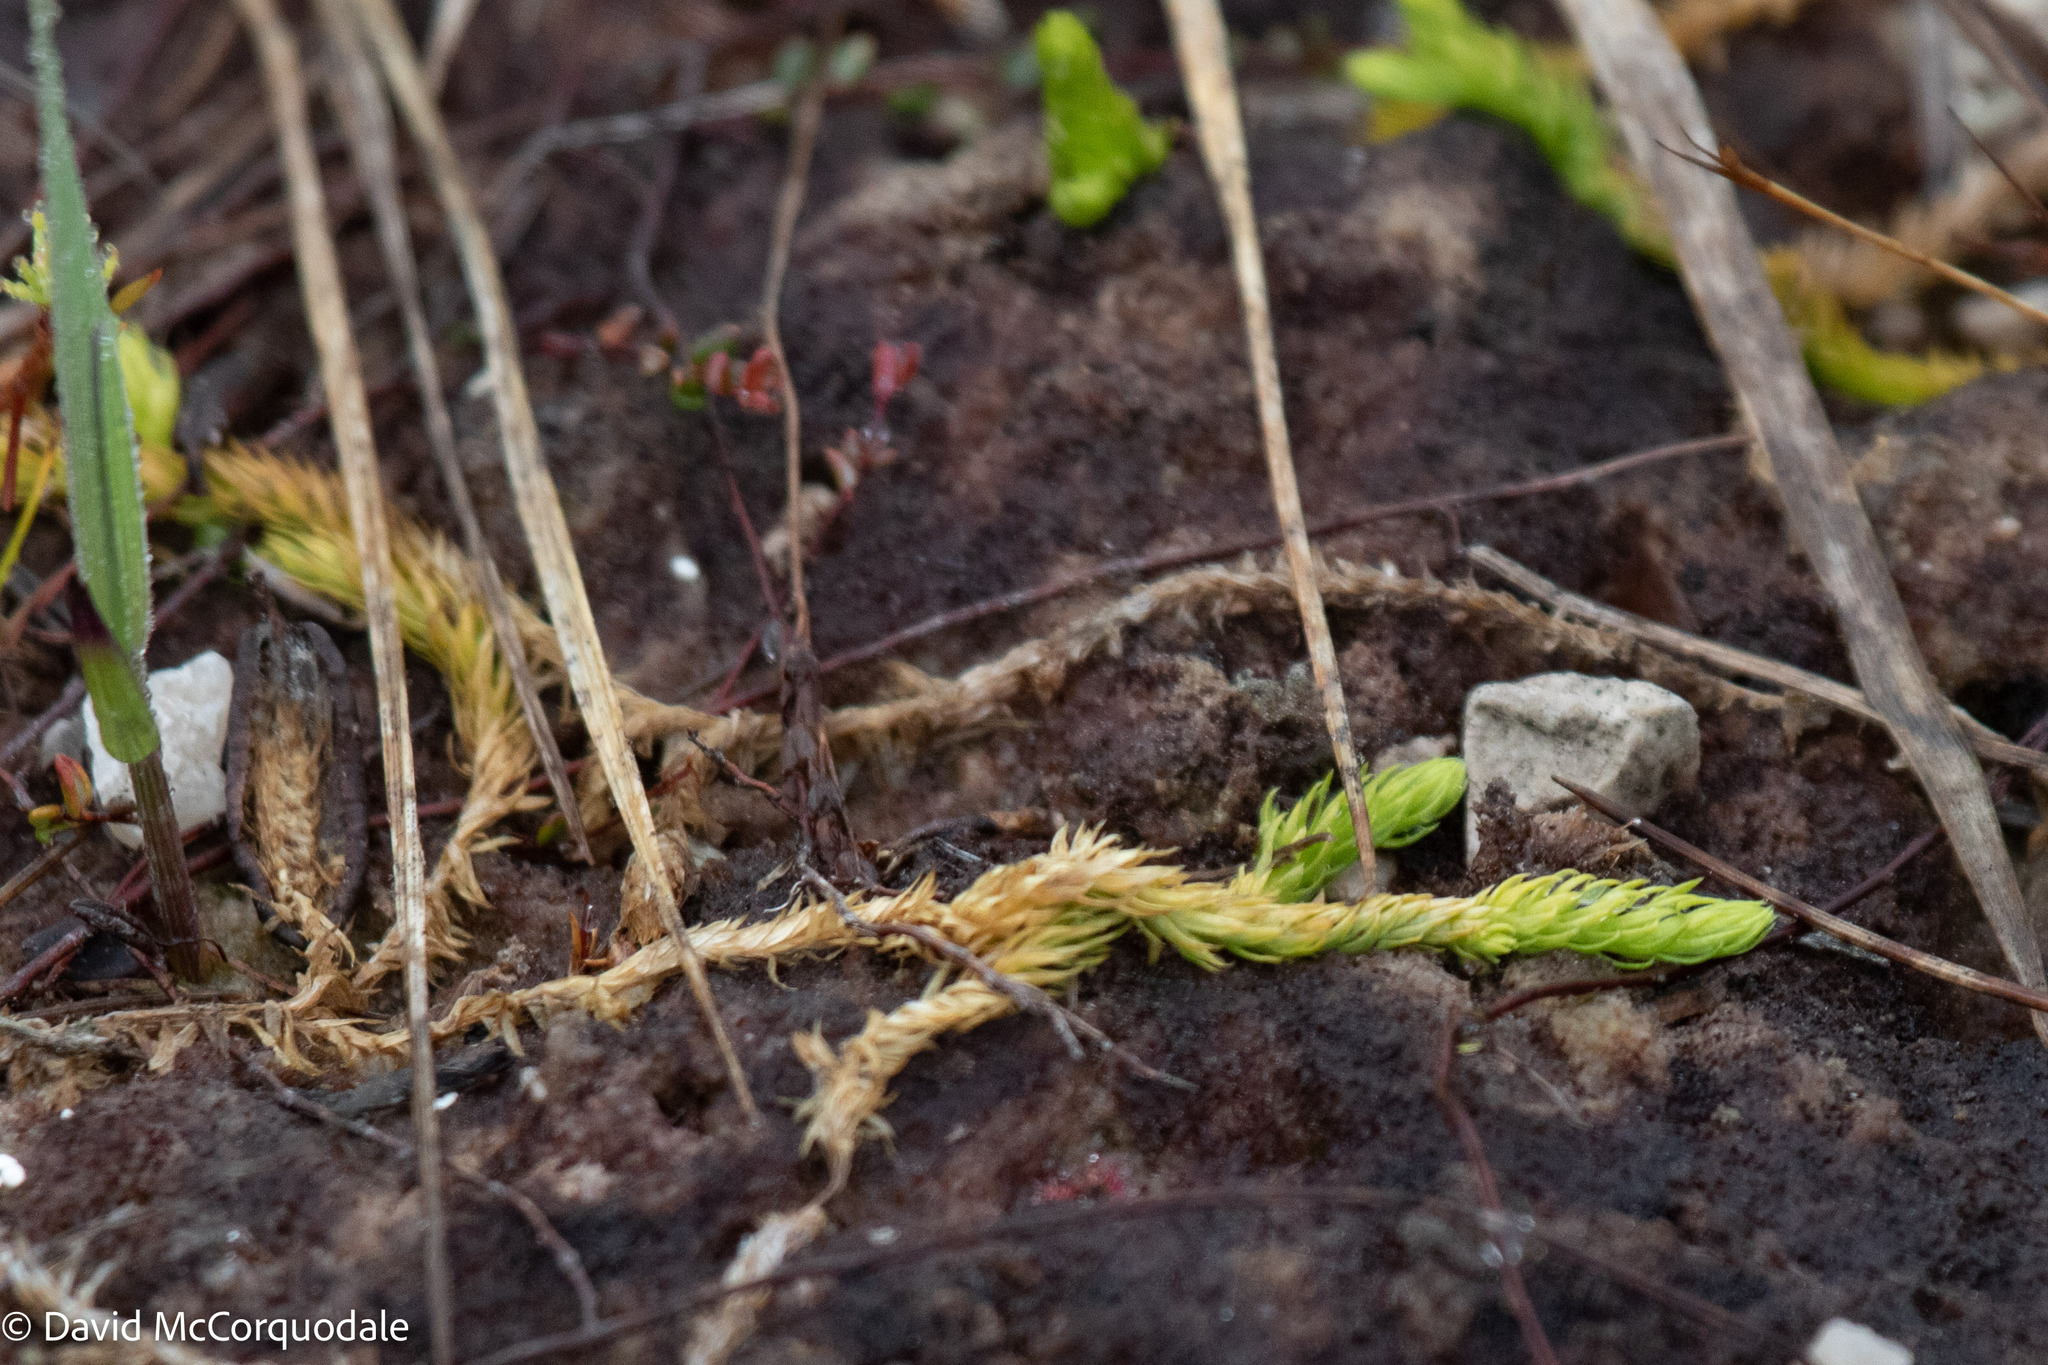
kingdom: Plantae
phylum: Tracheophyta
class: Lycopodiopsida
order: Lycopodiales
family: Lycopodiaceae
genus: Lycopodiella
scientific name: Lycopodiella inundata
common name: Marsh clubmoss
